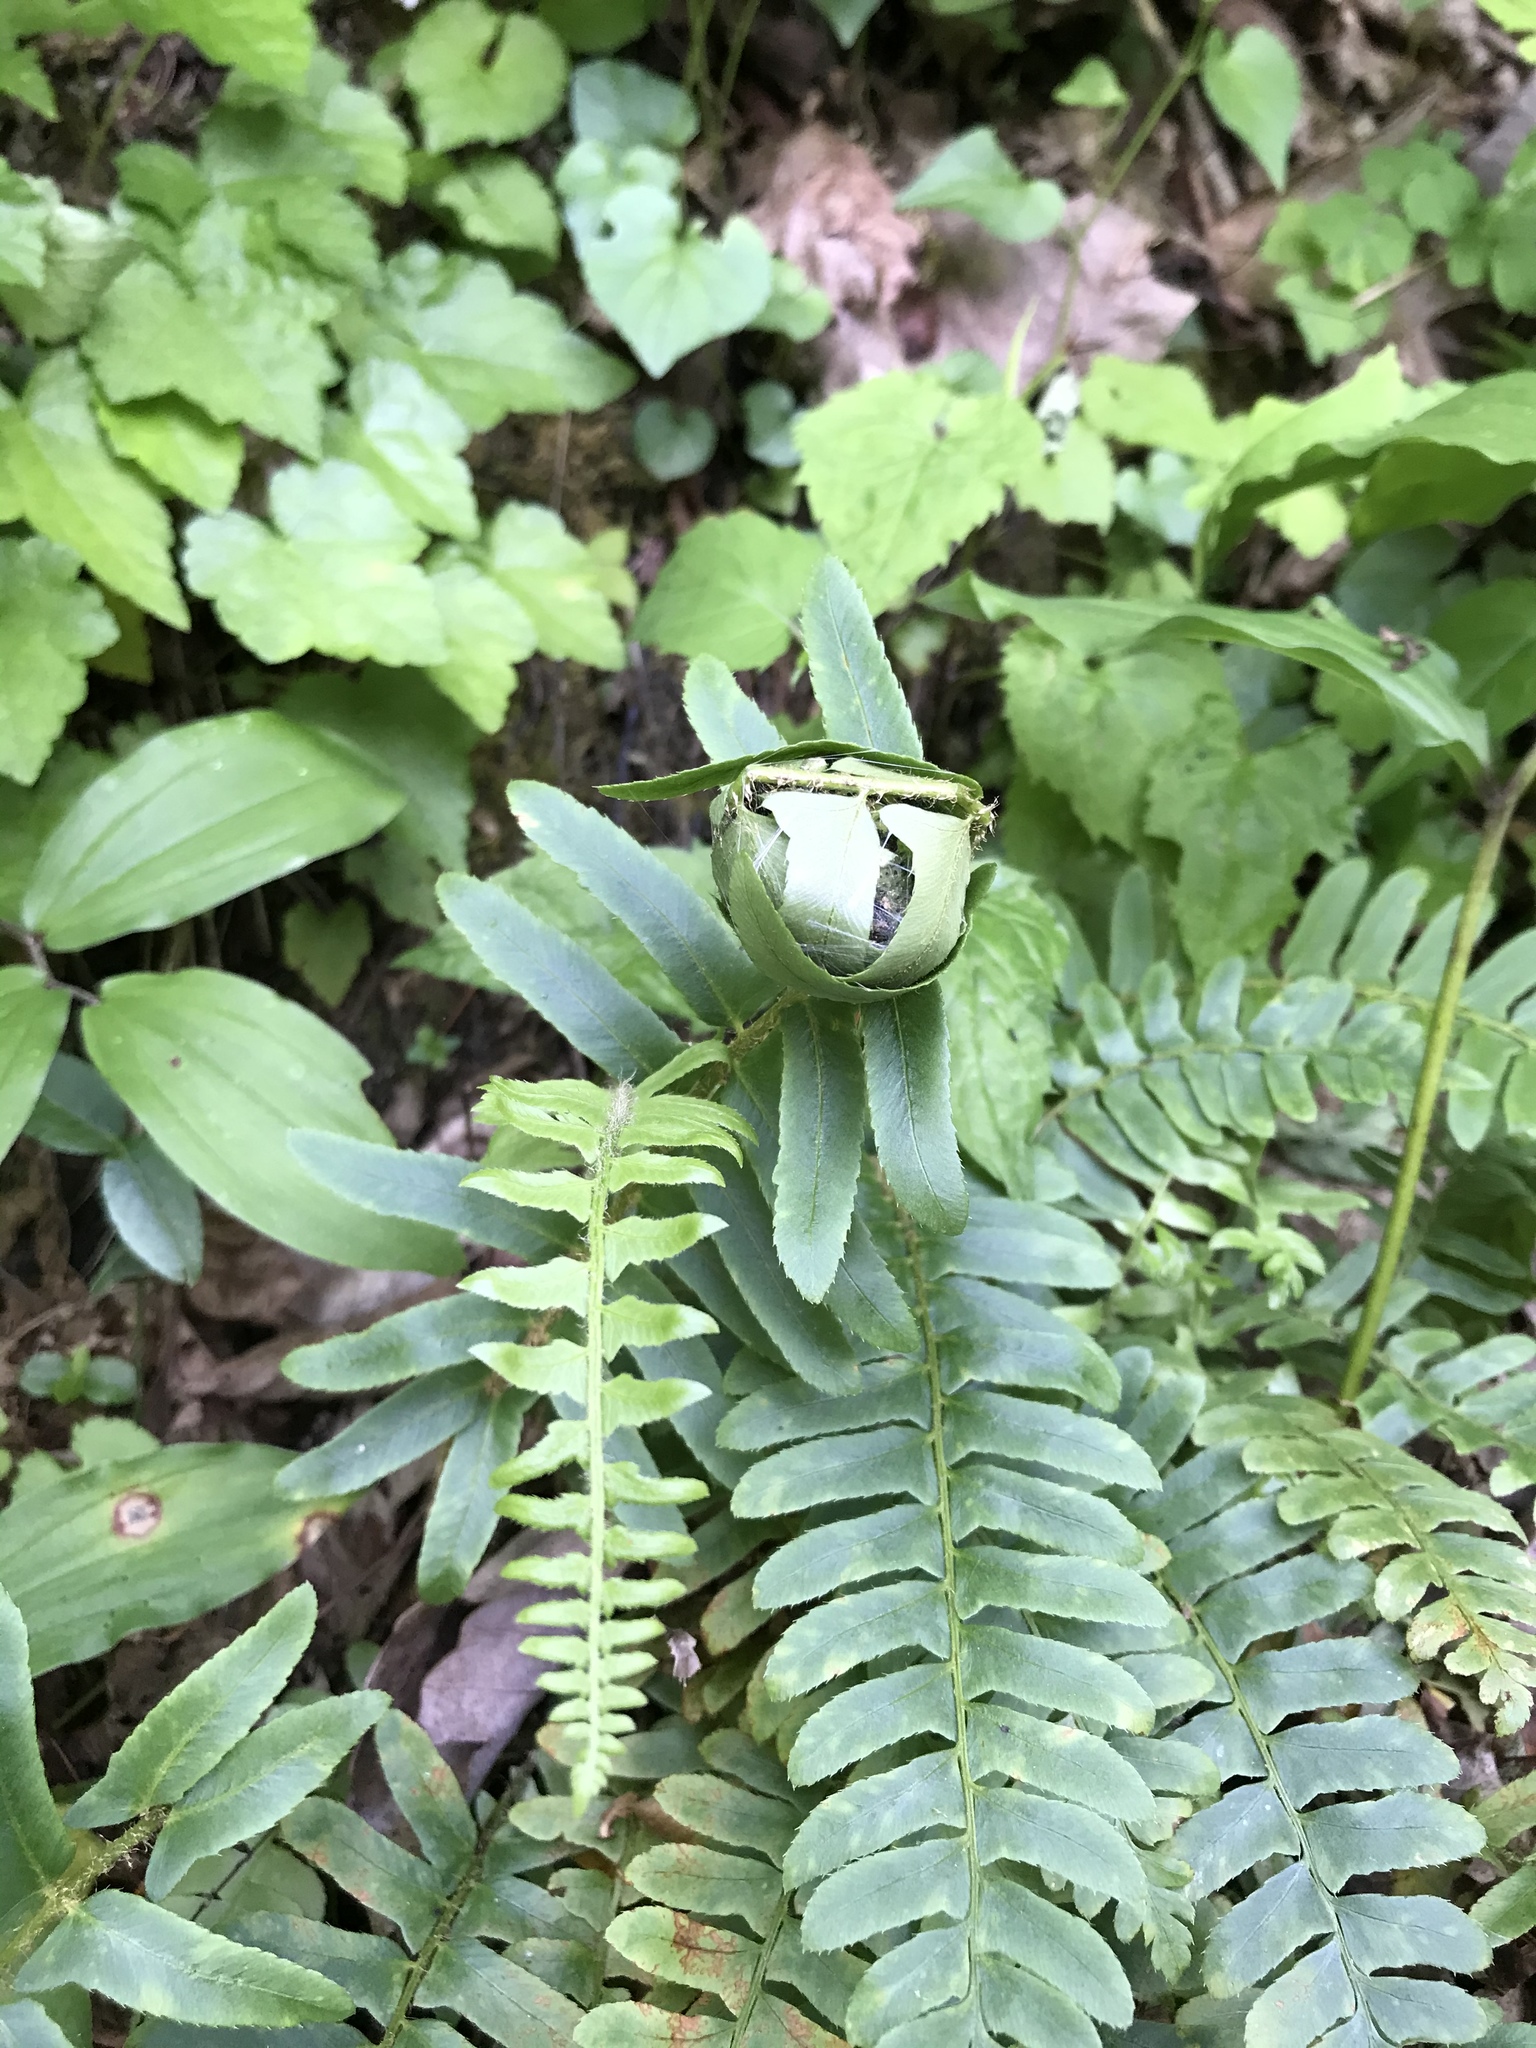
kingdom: Plantae
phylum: Tracheophyta
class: Polypodiopsida
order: Polypodiales
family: Dryopteridaceae
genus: Polystichum
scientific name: Polystichum acrostichoides
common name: Christmas fern
